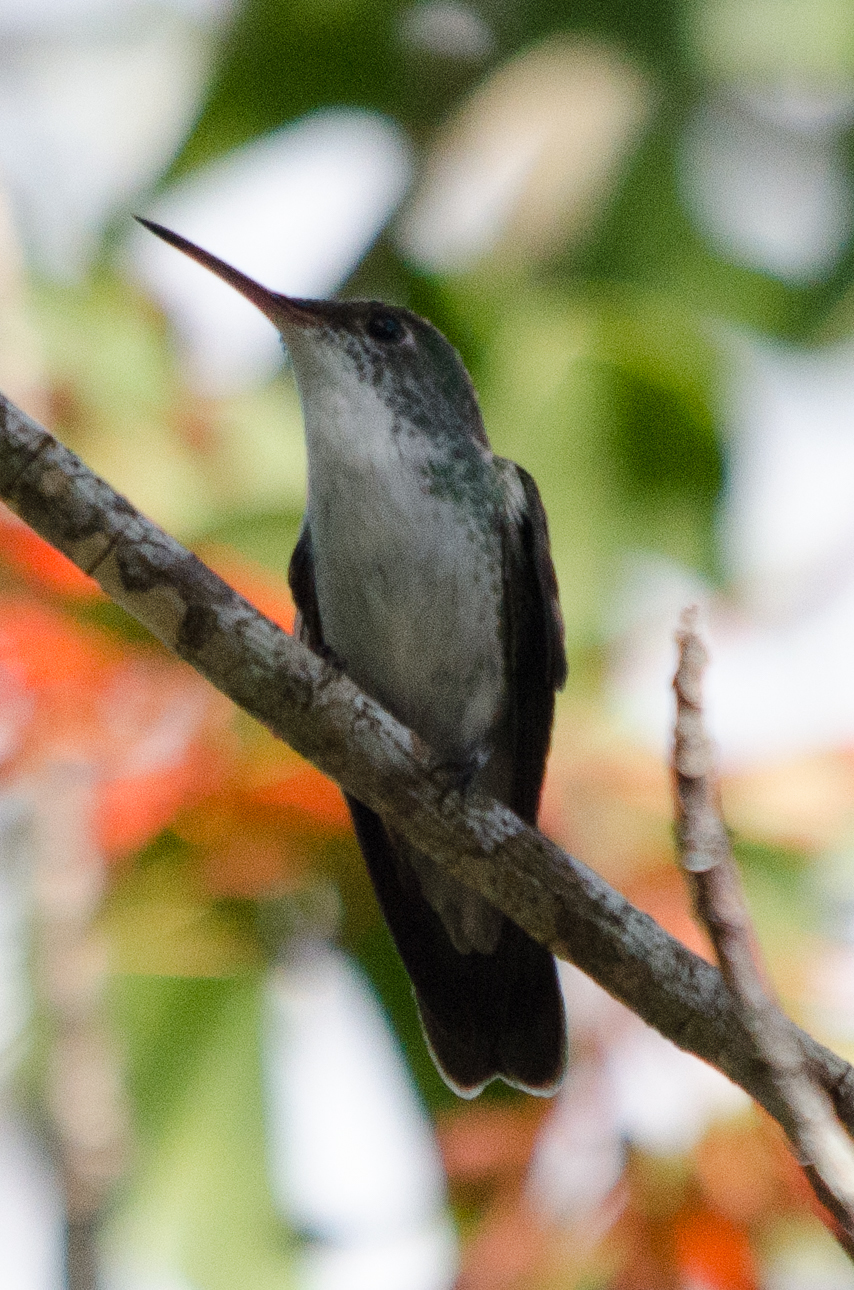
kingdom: Animalia
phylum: Chordata
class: Aves
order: Apodiformes
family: Trochilidae
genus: Chlorestes
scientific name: Chlorestes candida
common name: White-bellied emerald
